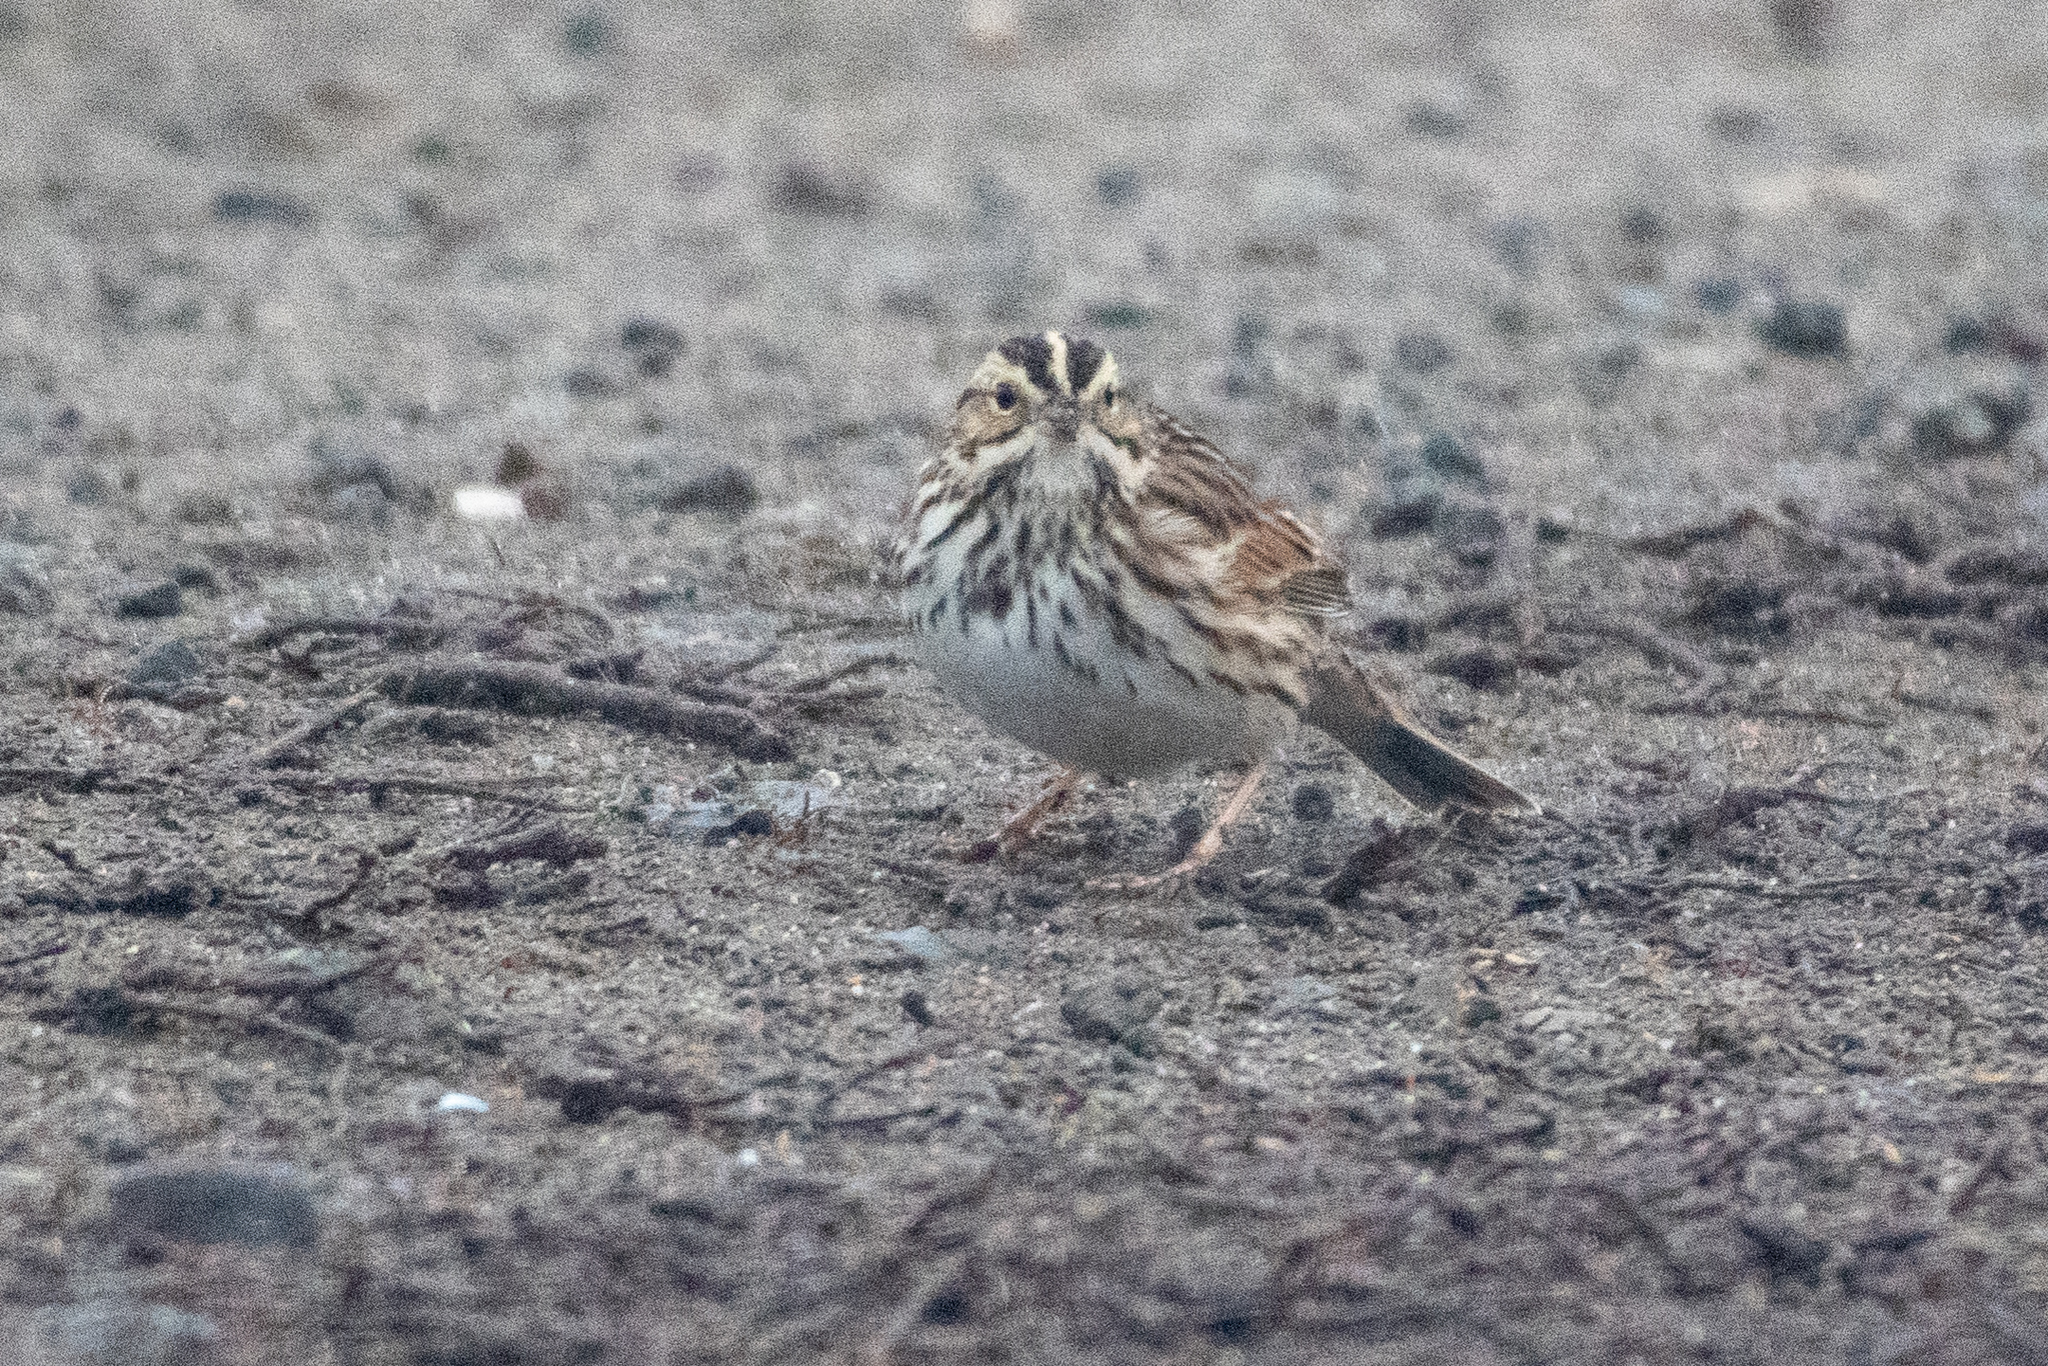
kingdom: Animalia
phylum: Chordata
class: Aves
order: Passeriformes
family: Passerellidae
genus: Passerculus
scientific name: Passerculus sandwichensis
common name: Savannah sparrow
